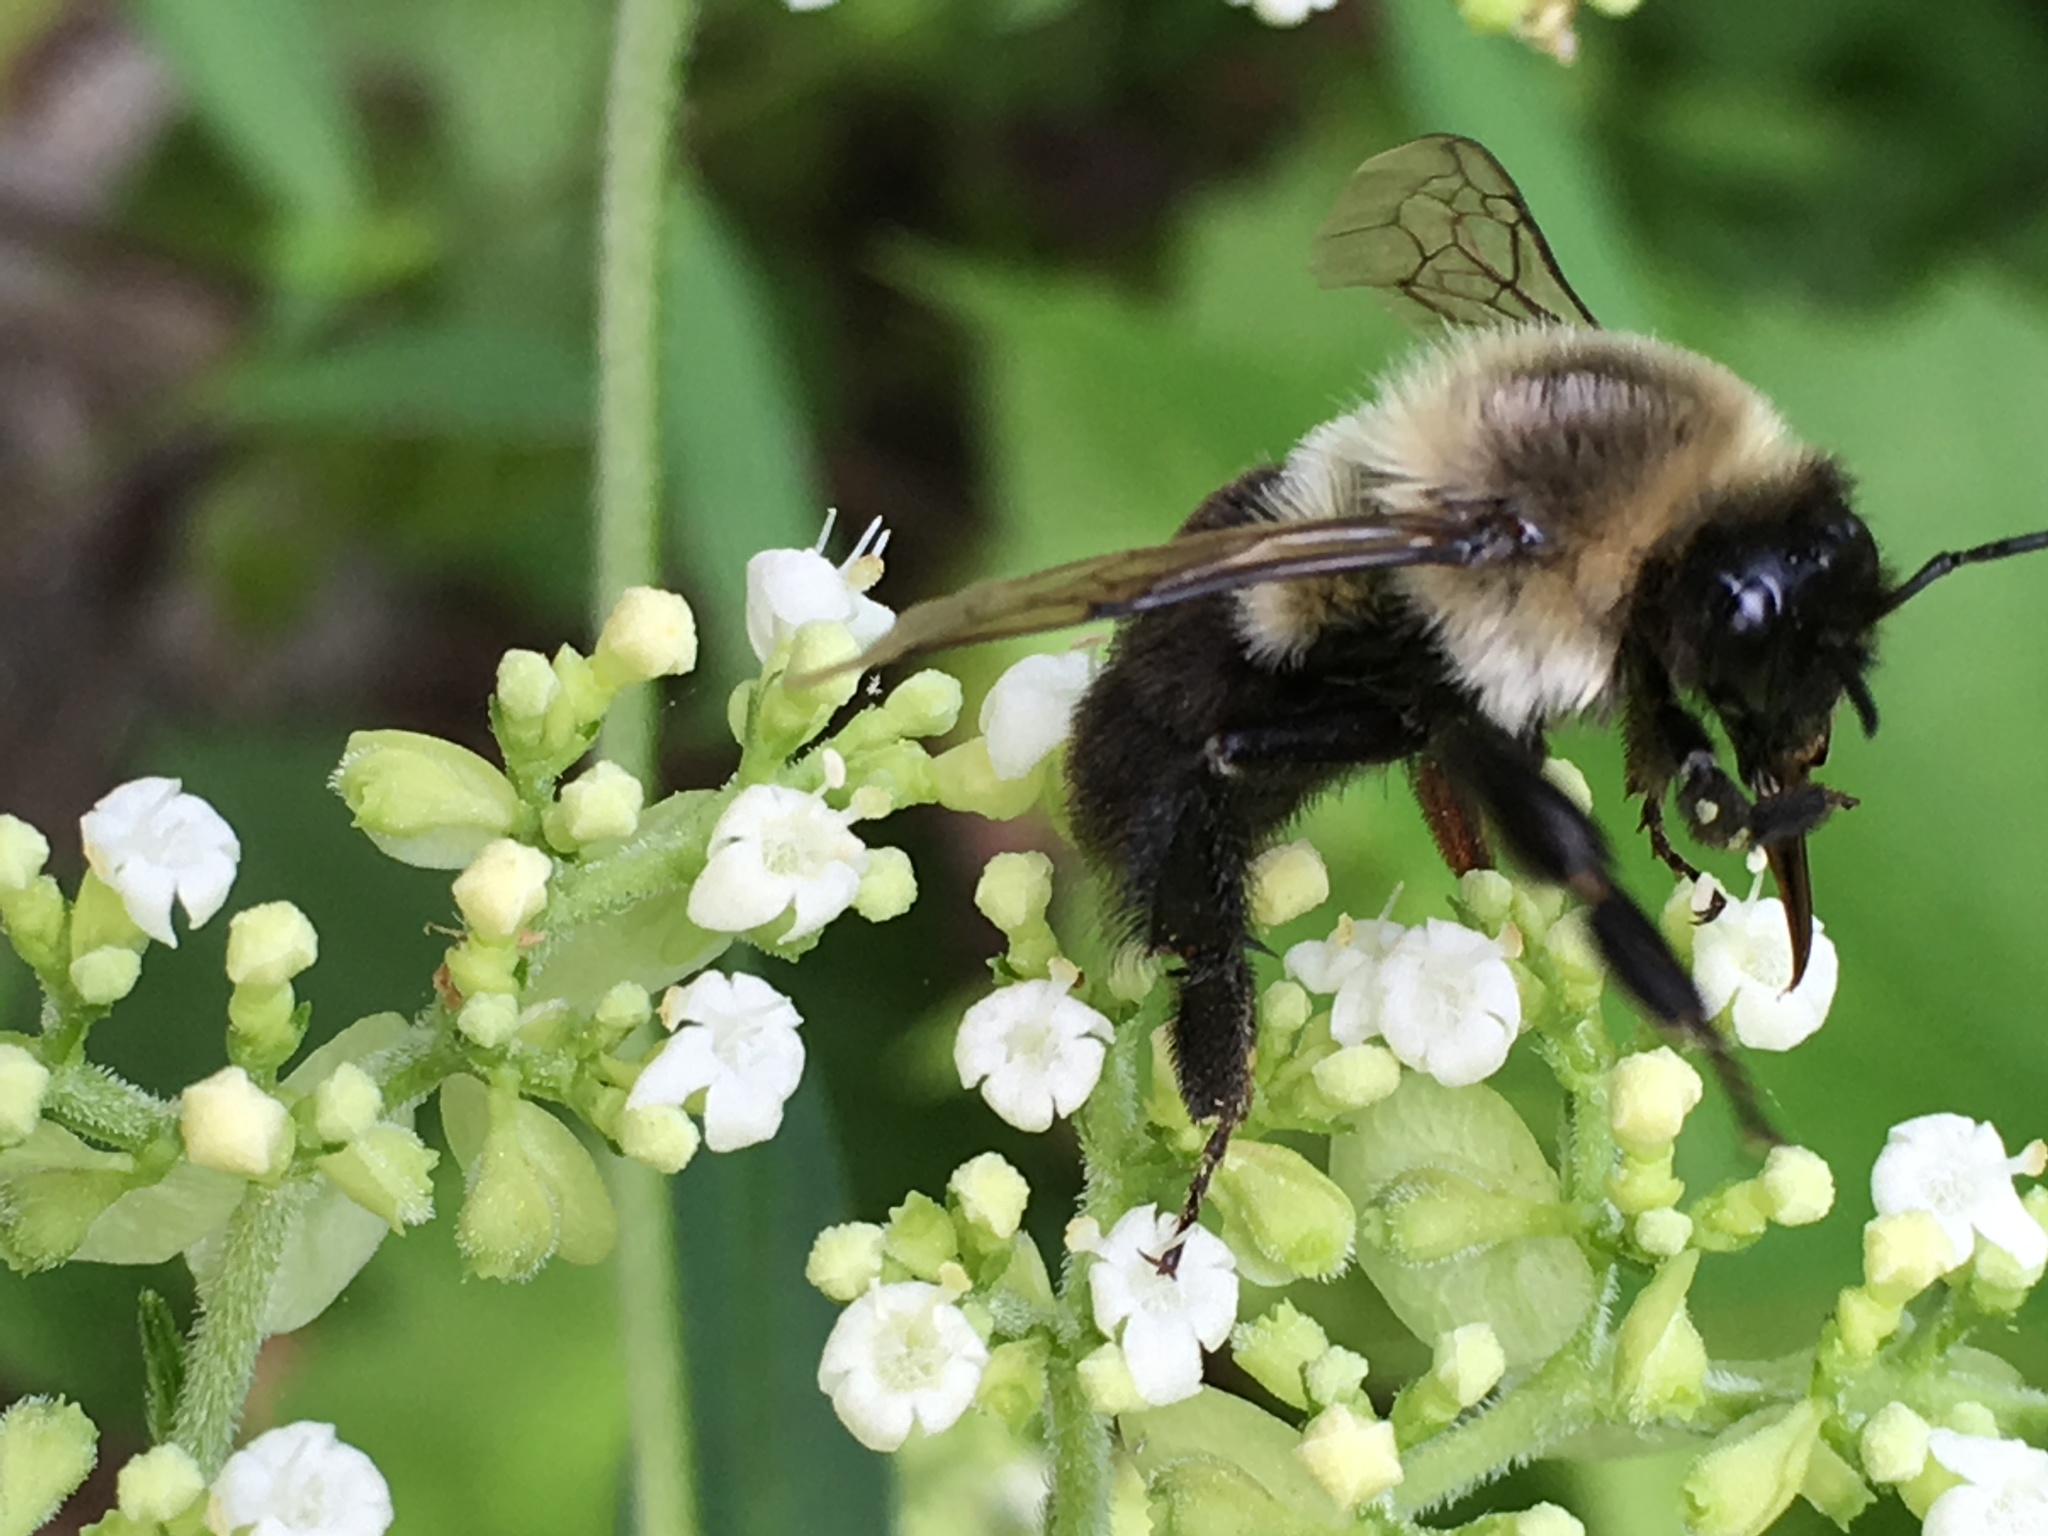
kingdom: Animalia
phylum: Arthropoda
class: Insecta
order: Hymenoptera
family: Apidae
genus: Bombus
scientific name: Bombus impatiens
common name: Common eastern bumble bee
